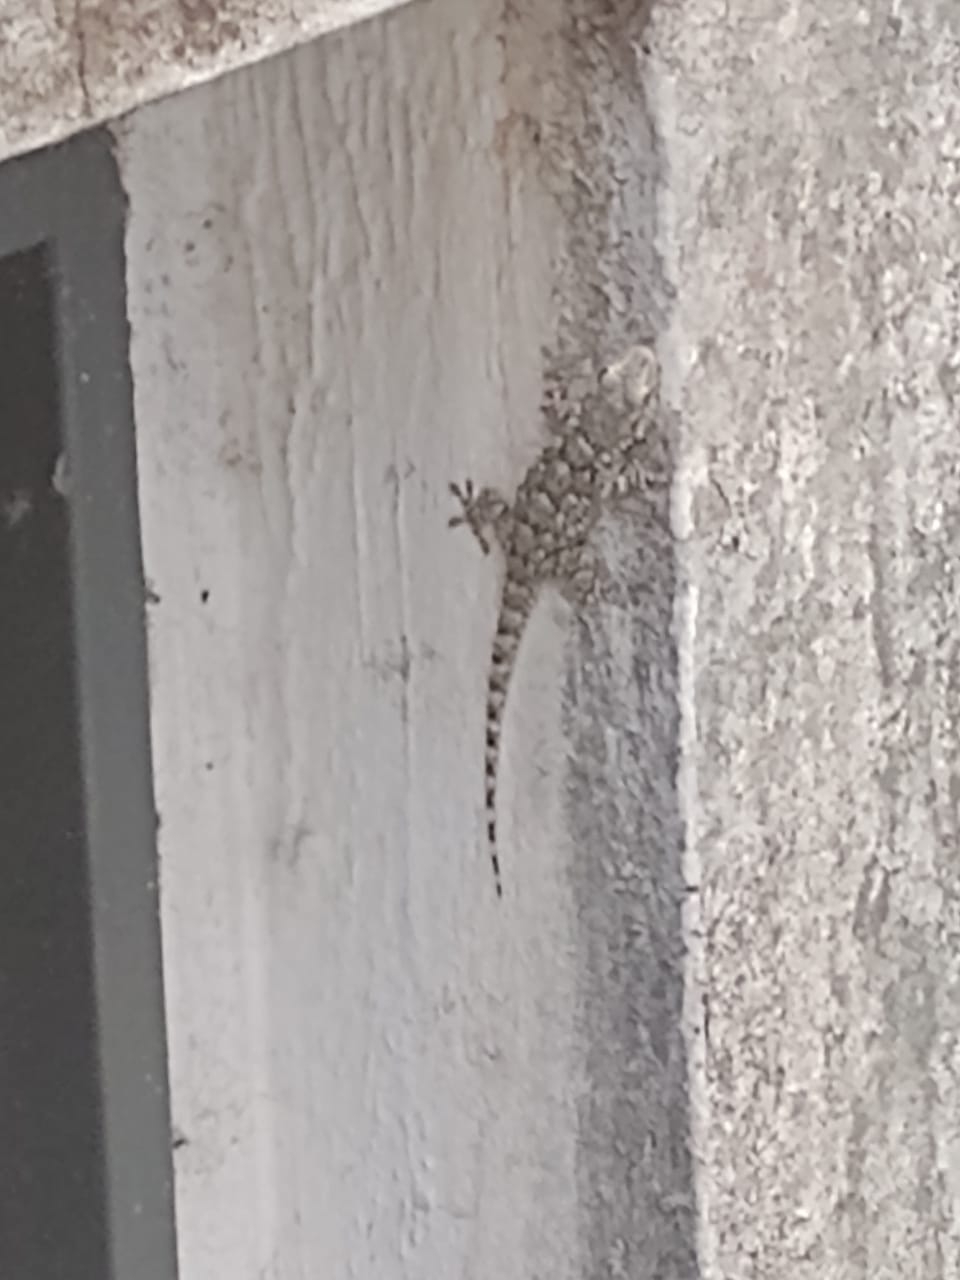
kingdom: Animalia
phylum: Chordata
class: Squamata
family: Phyllodactylidae
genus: Tarentola
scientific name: Tarentola mauritanica
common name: Moorish gecko
